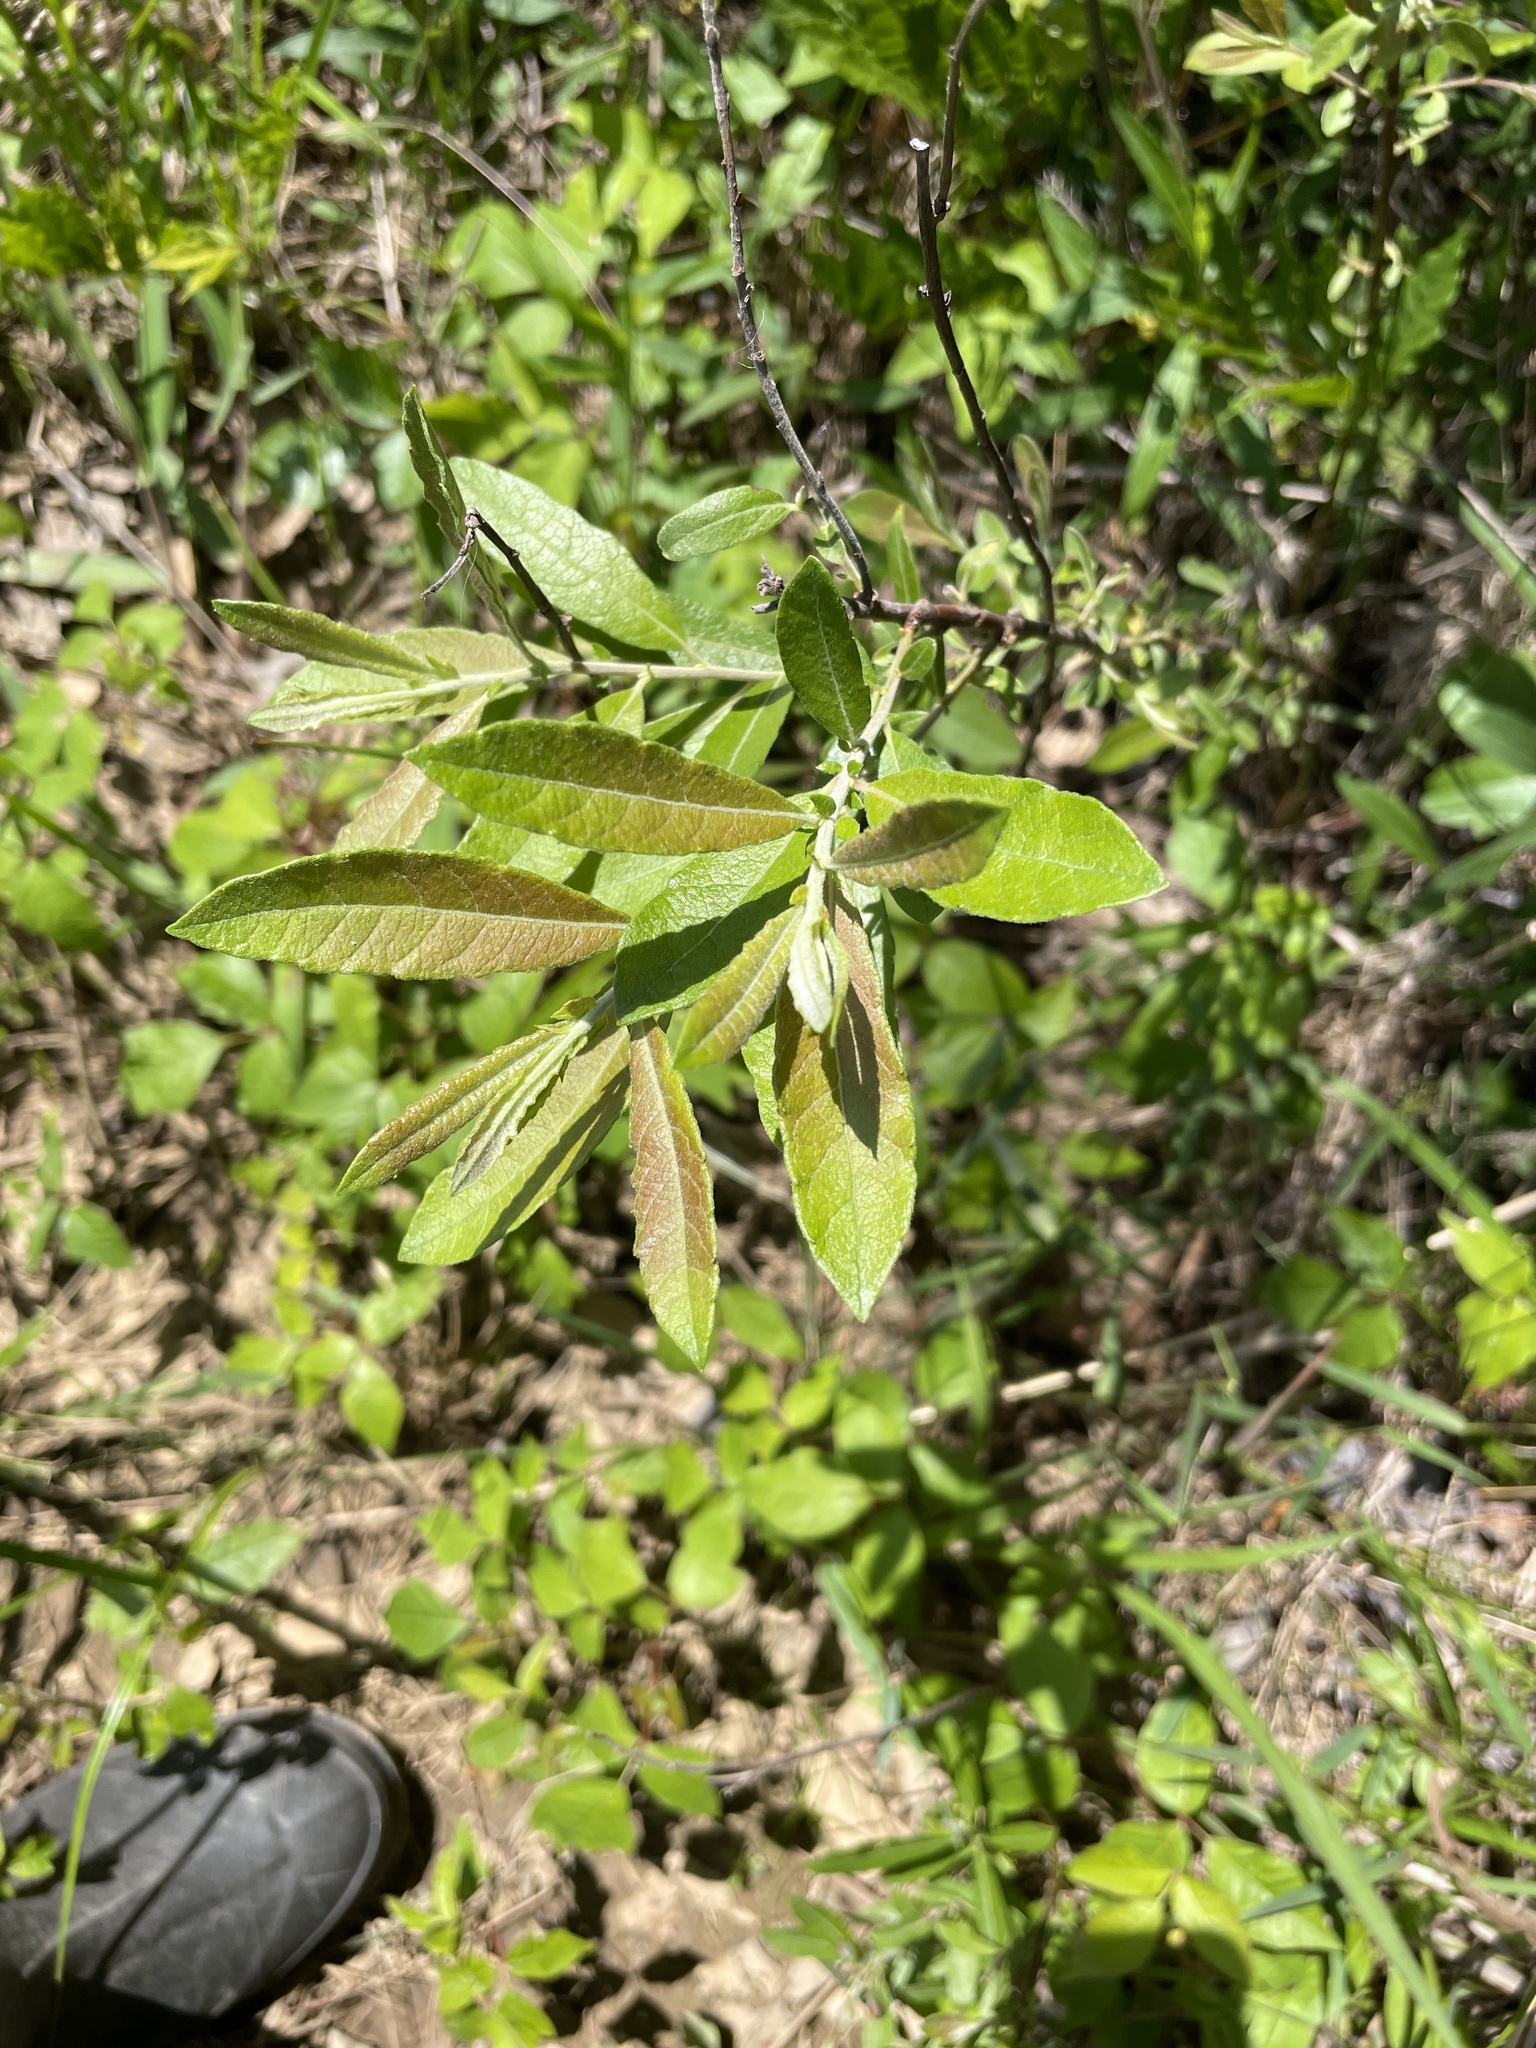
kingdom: Plantae
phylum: Tracheophyta
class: Magnoliopsida
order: Malpighiales
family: Salicaceae
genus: Salix
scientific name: Salix humilis
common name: Prairie willow
